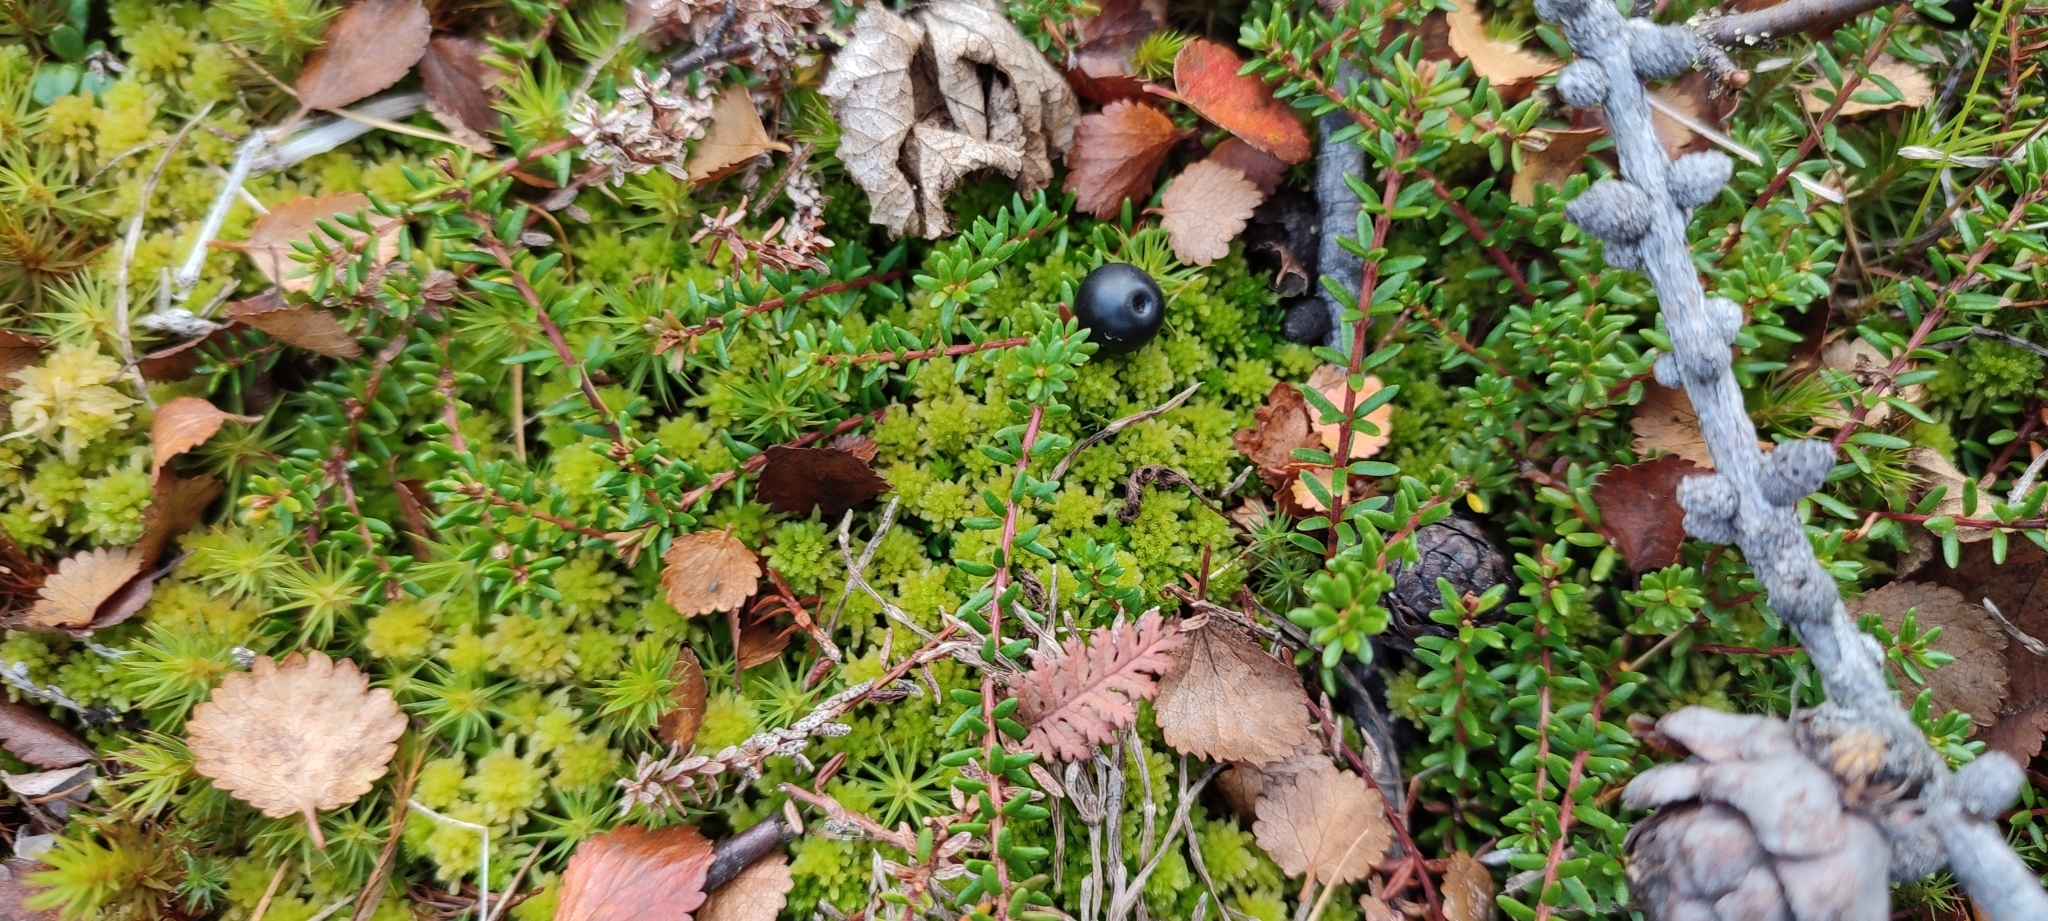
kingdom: Plantae
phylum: Tracheophyta
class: Magnoliopsida
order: Ericales
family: Ericaceae
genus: Empetrum
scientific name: Empetrum nigrum
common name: Black crowberry
